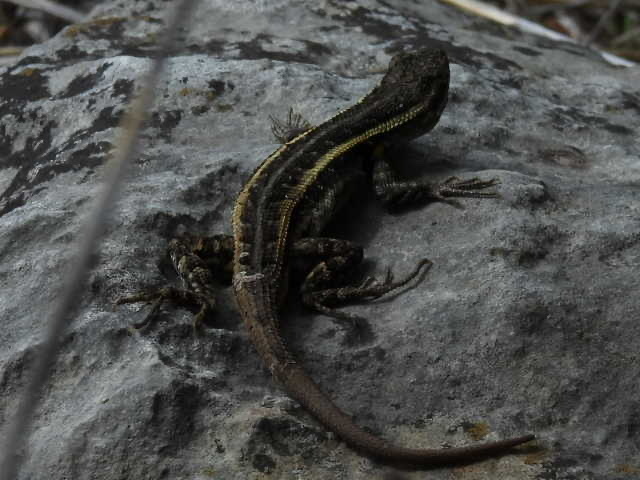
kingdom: Animalia
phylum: Chordata
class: Squamata
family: Phrynosomatidae
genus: Sceloporus
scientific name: Sceloporus variabilis
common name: Rosebelly lizard
